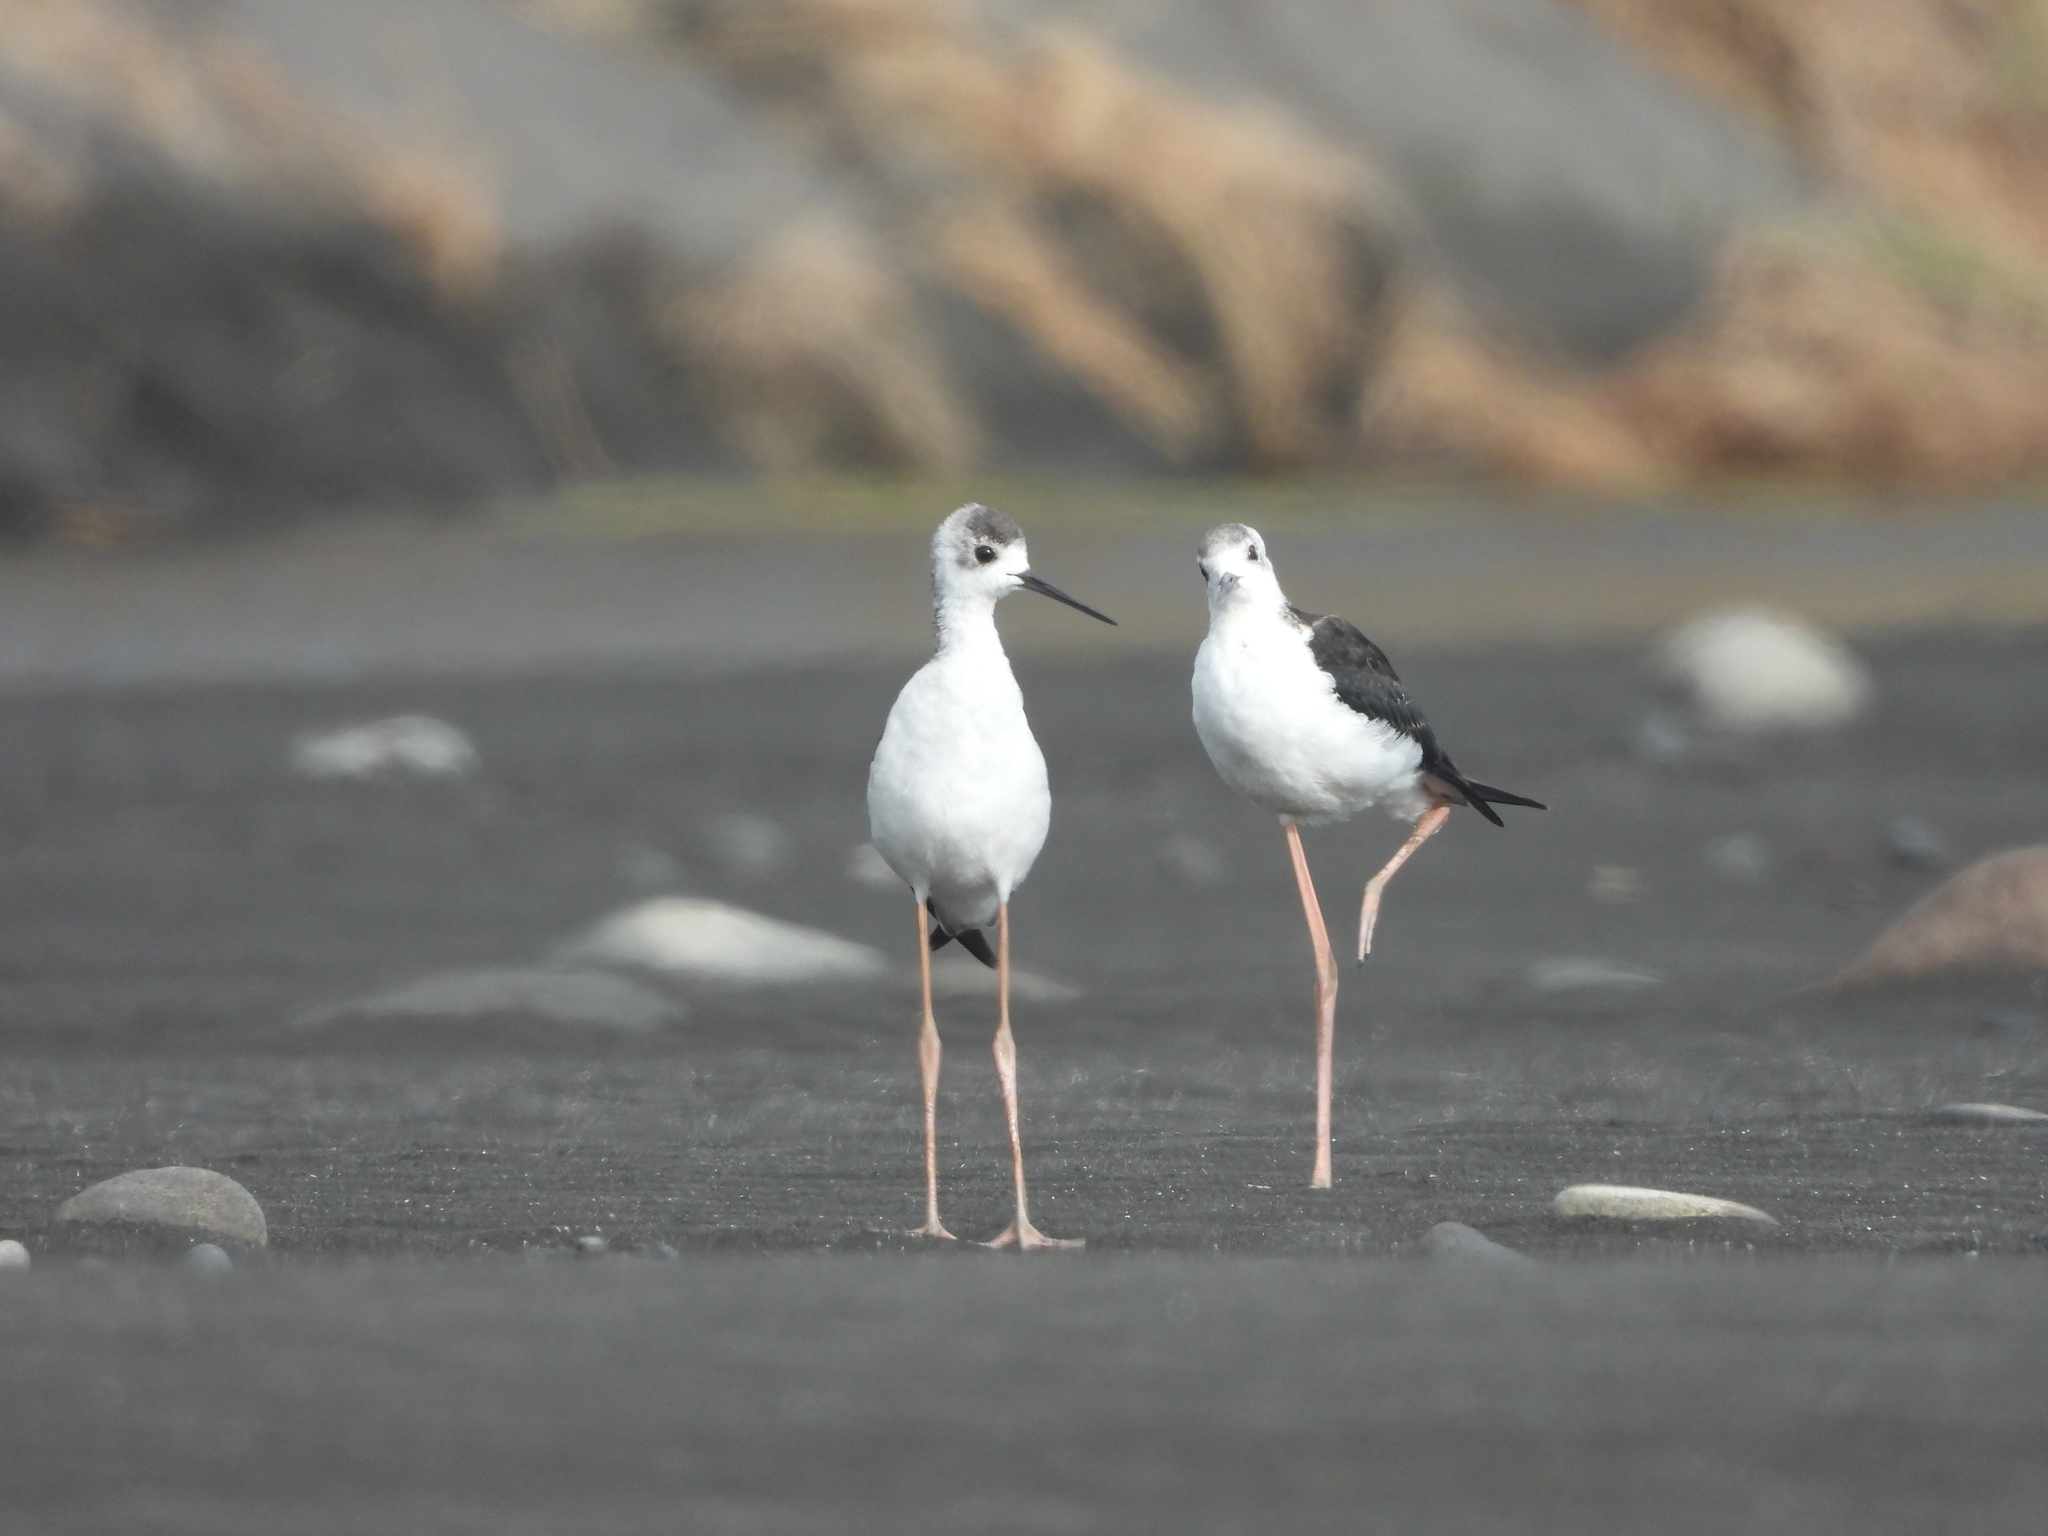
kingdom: Animalia
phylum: Chordata
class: Aves
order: Charadriiformes
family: Recurvirostridae
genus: Himantopus
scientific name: Himantopus leucocephalus
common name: White-headed stilt
